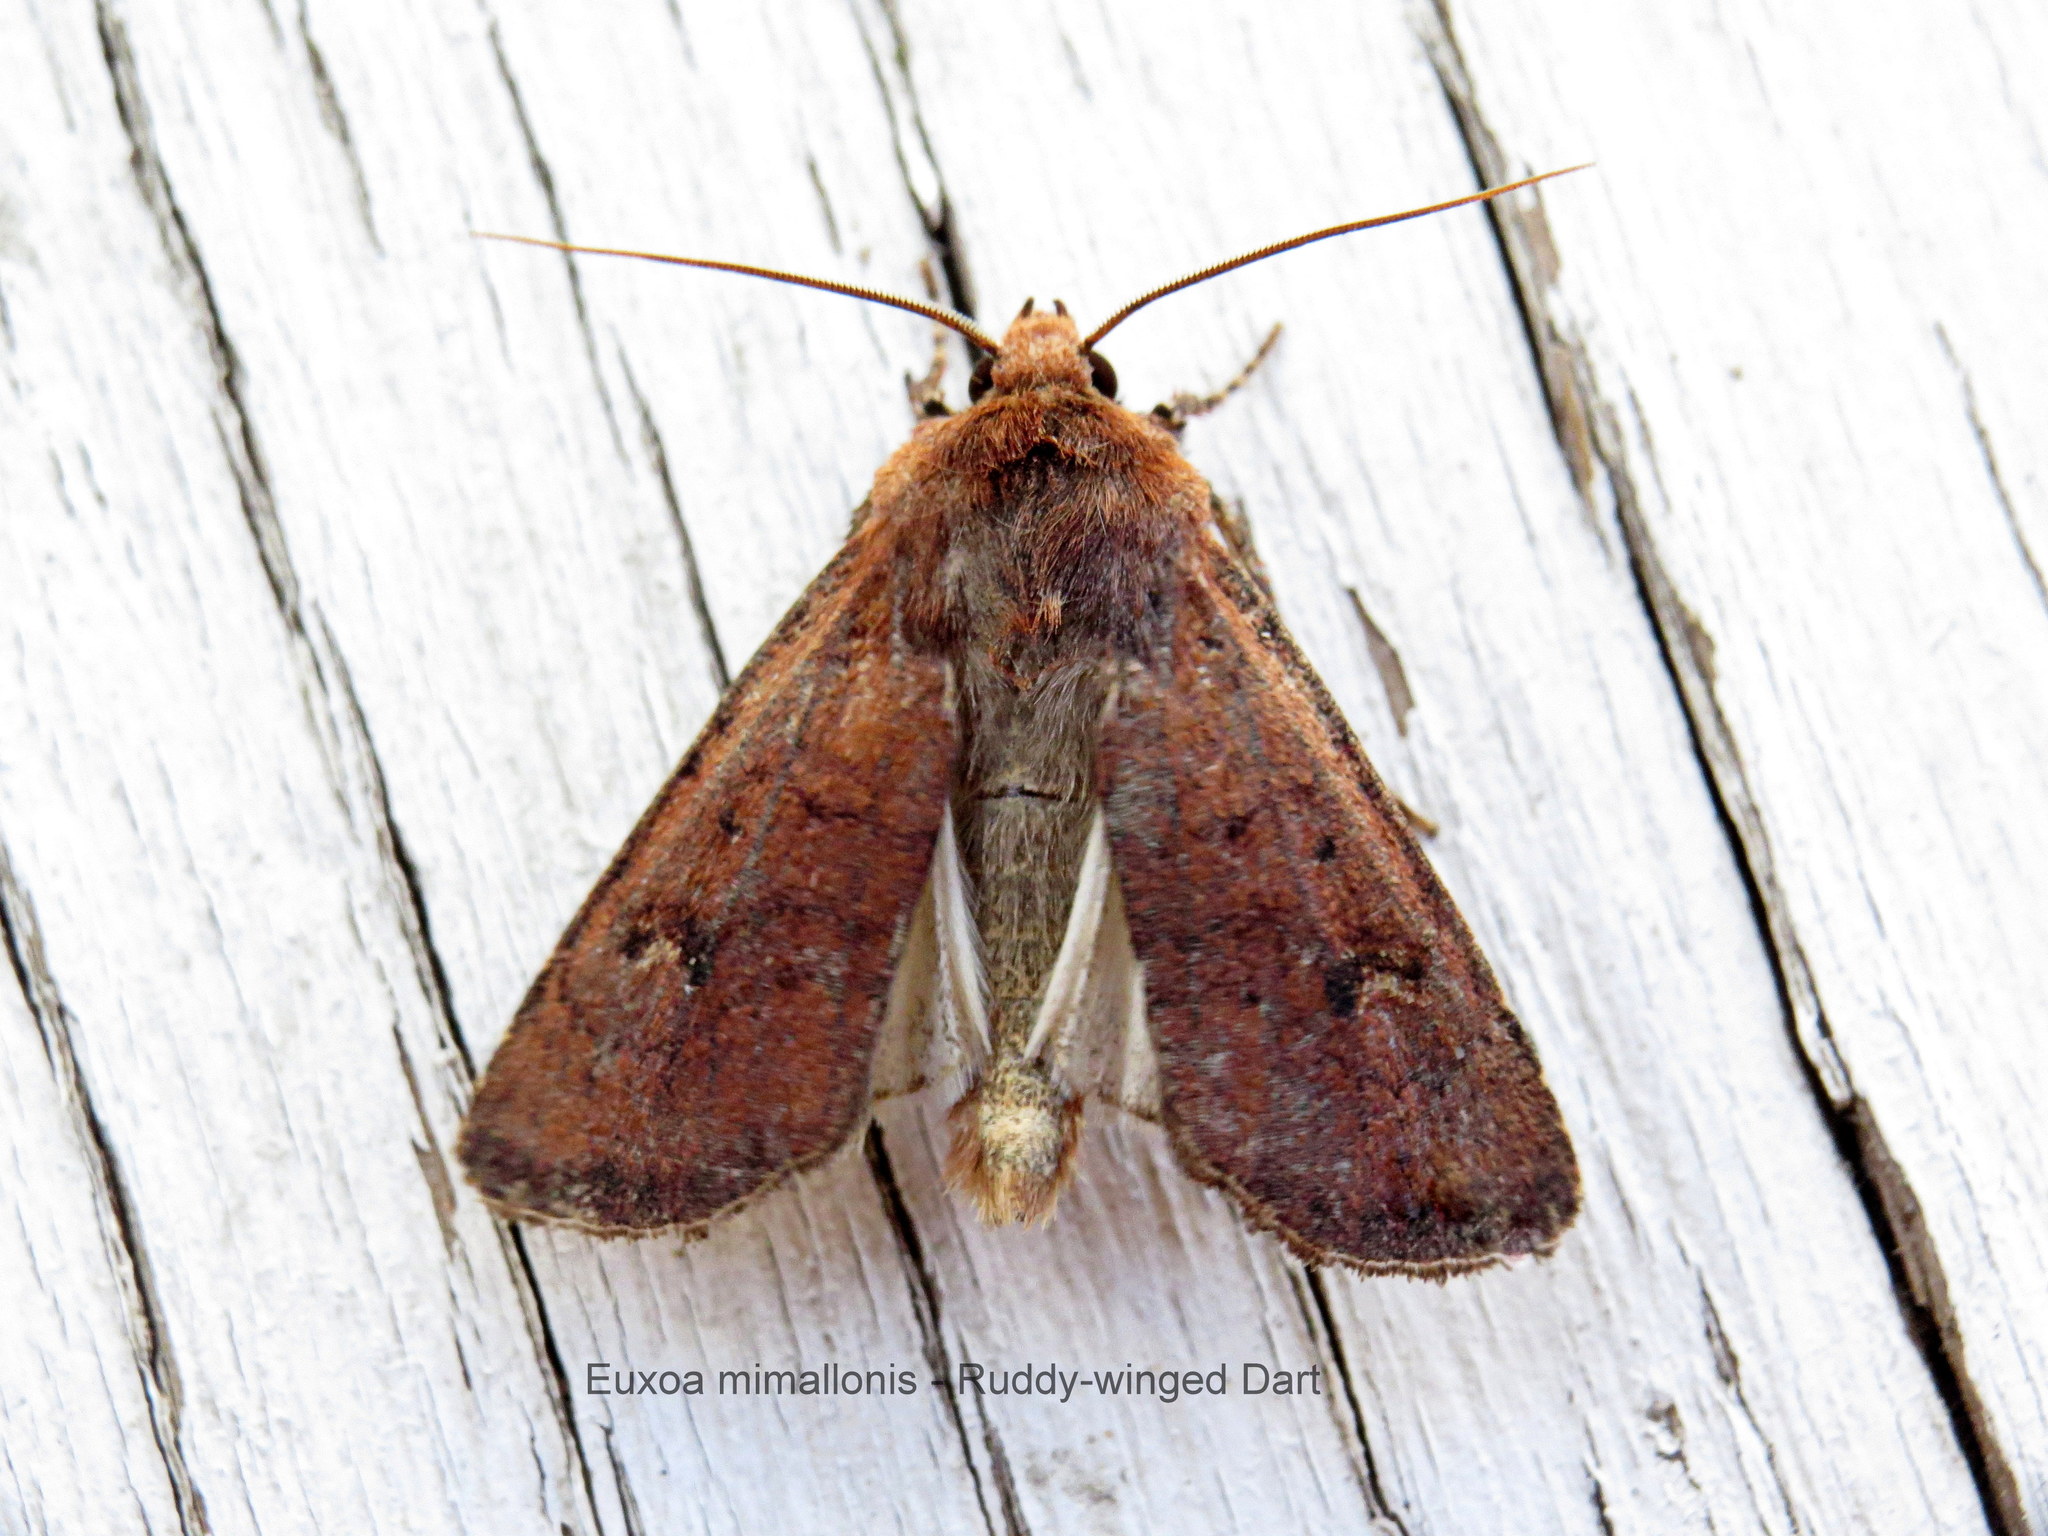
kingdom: Animalia
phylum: Arthropoda
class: Insecta
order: Lepidoptera
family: Noctuidae
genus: Euxoa
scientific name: Euxoa mimallonis
